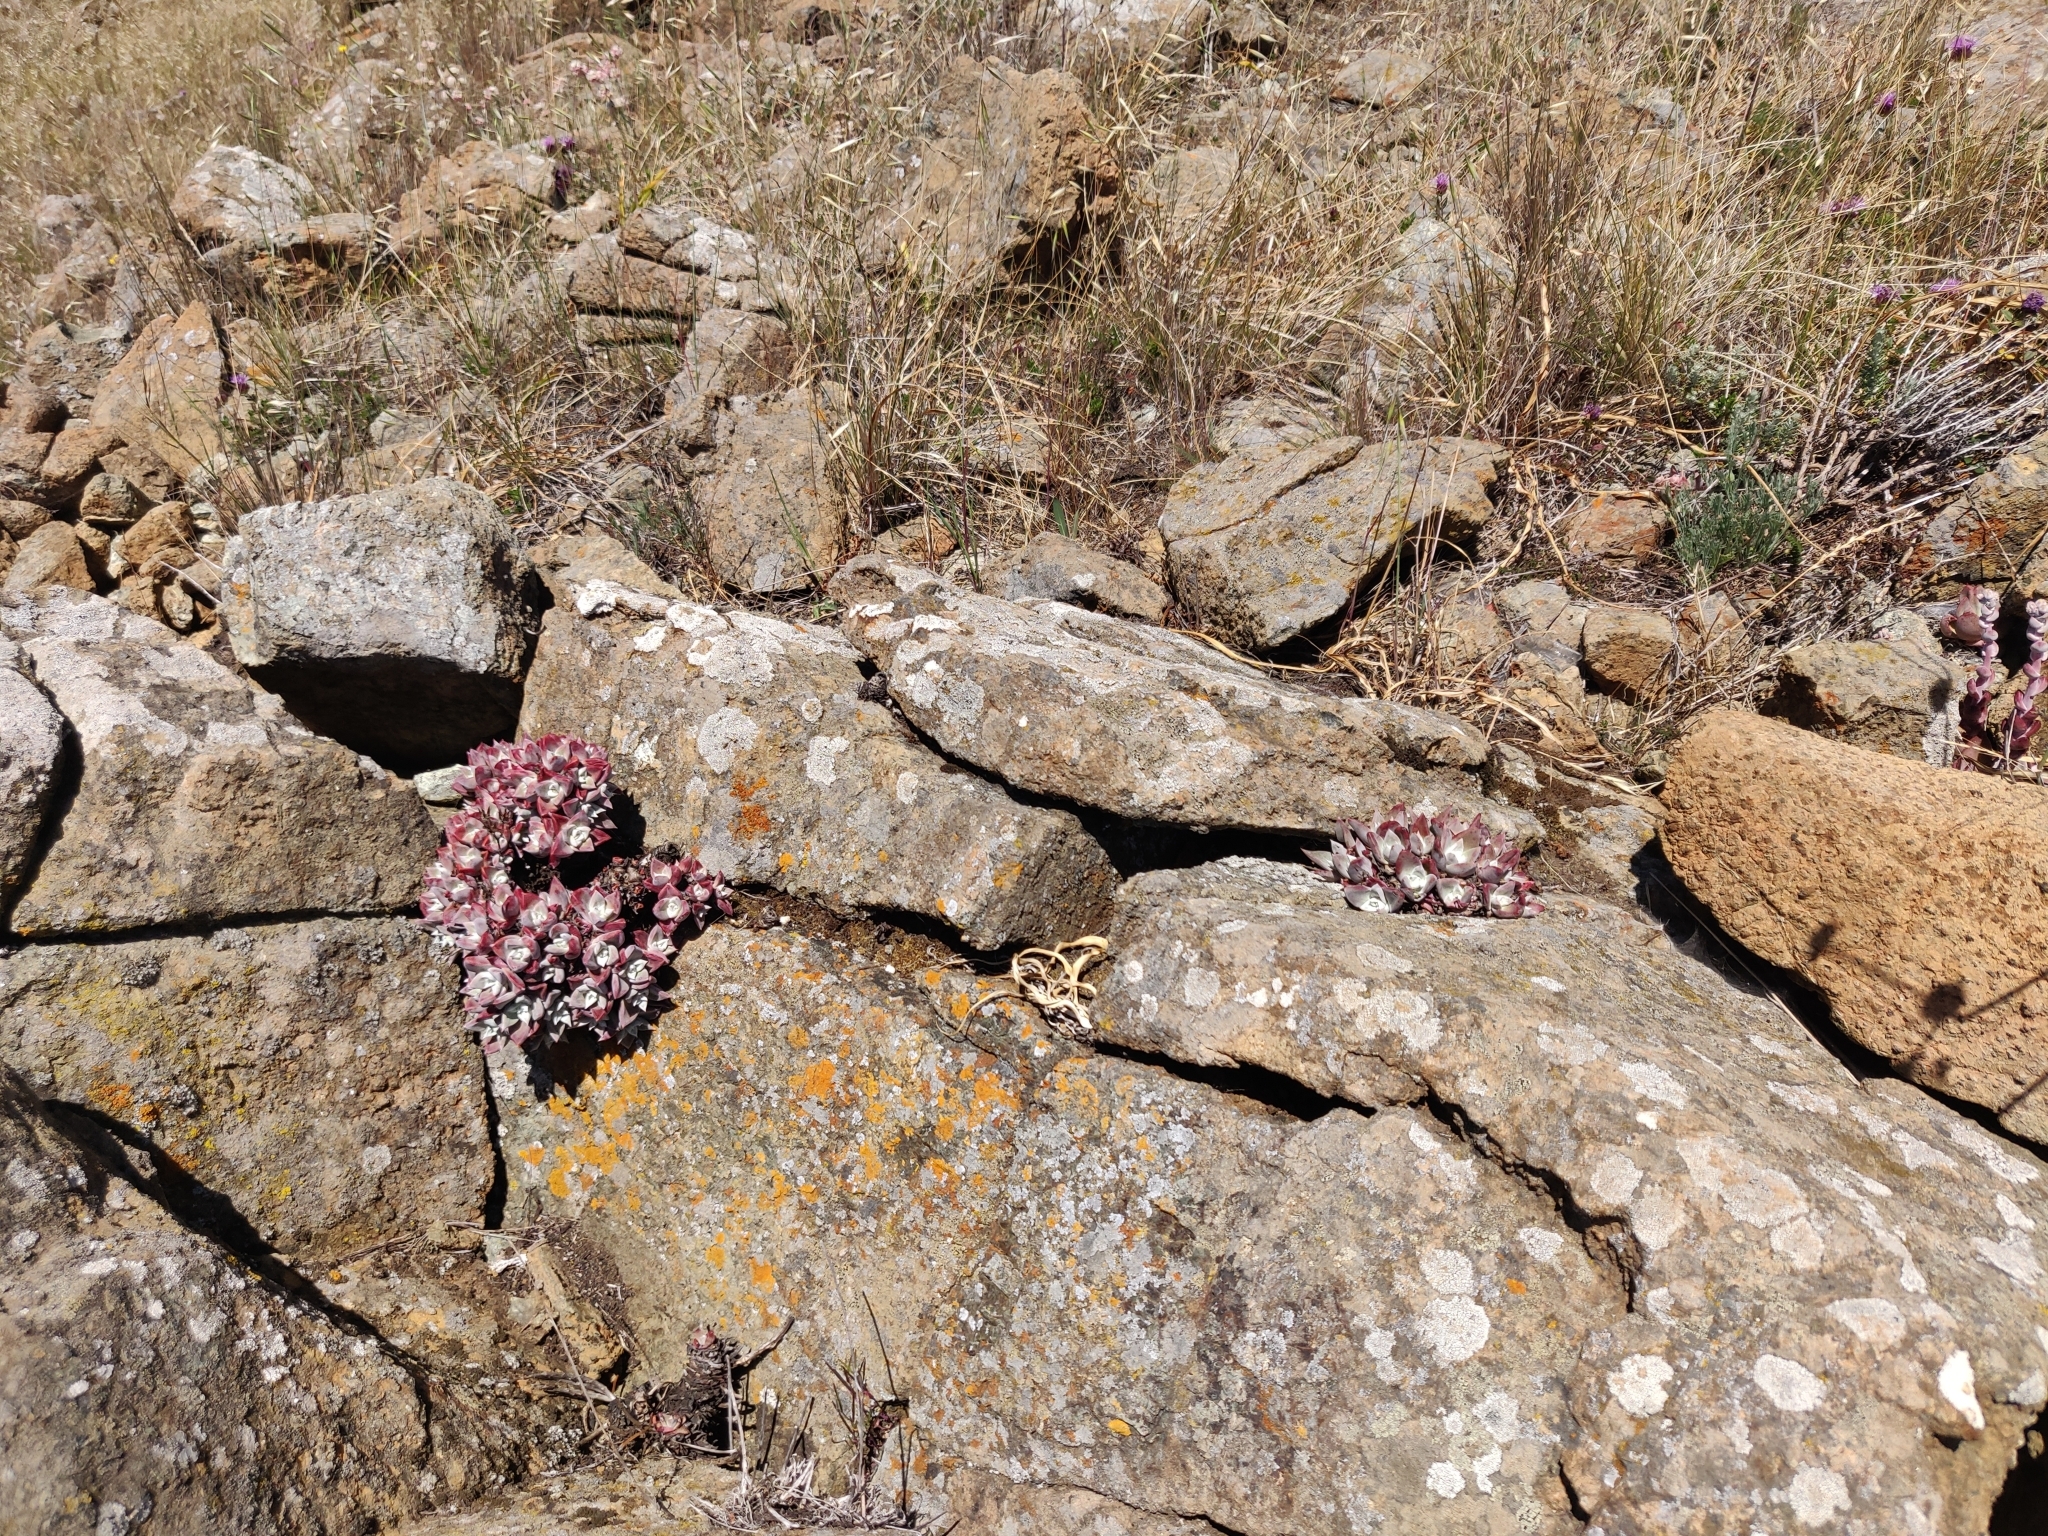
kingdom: Plantae
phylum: Tracheophyta
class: Magnoliopsida
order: Saxifragales
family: Crassulaceae
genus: Dudleya
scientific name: Dudleya farinosa
